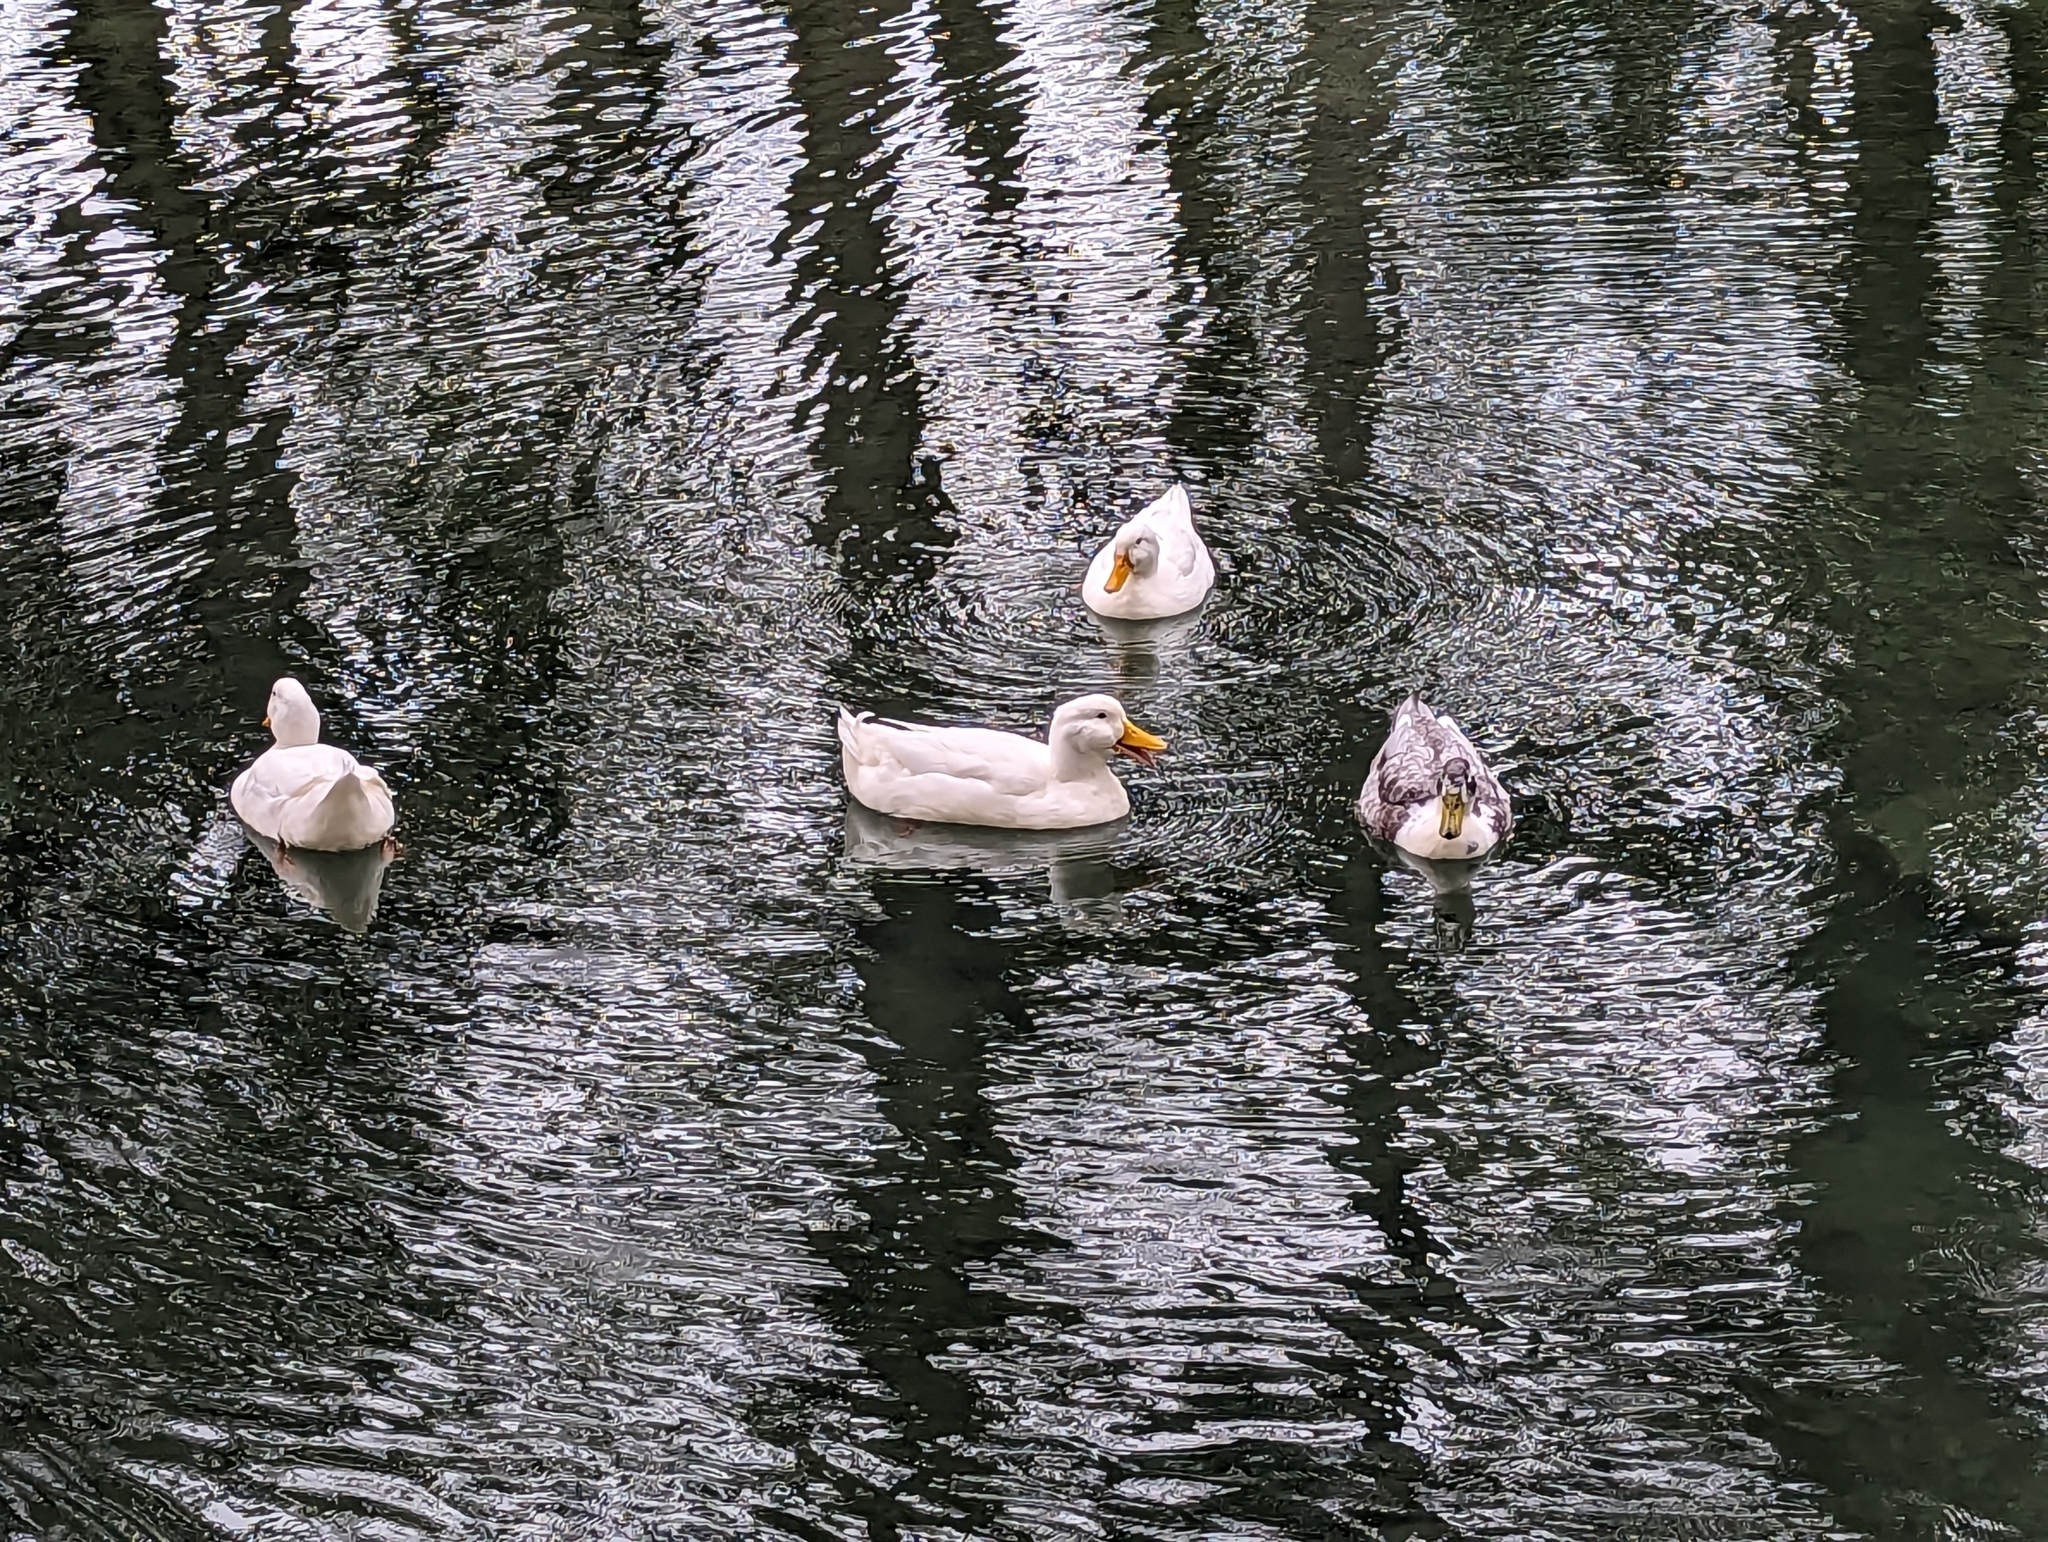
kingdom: Animalia
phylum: Chordata
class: Aves
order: Anseriformes
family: Anatidae
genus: Anas
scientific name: Anas platyrhynchos
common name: Mallard
